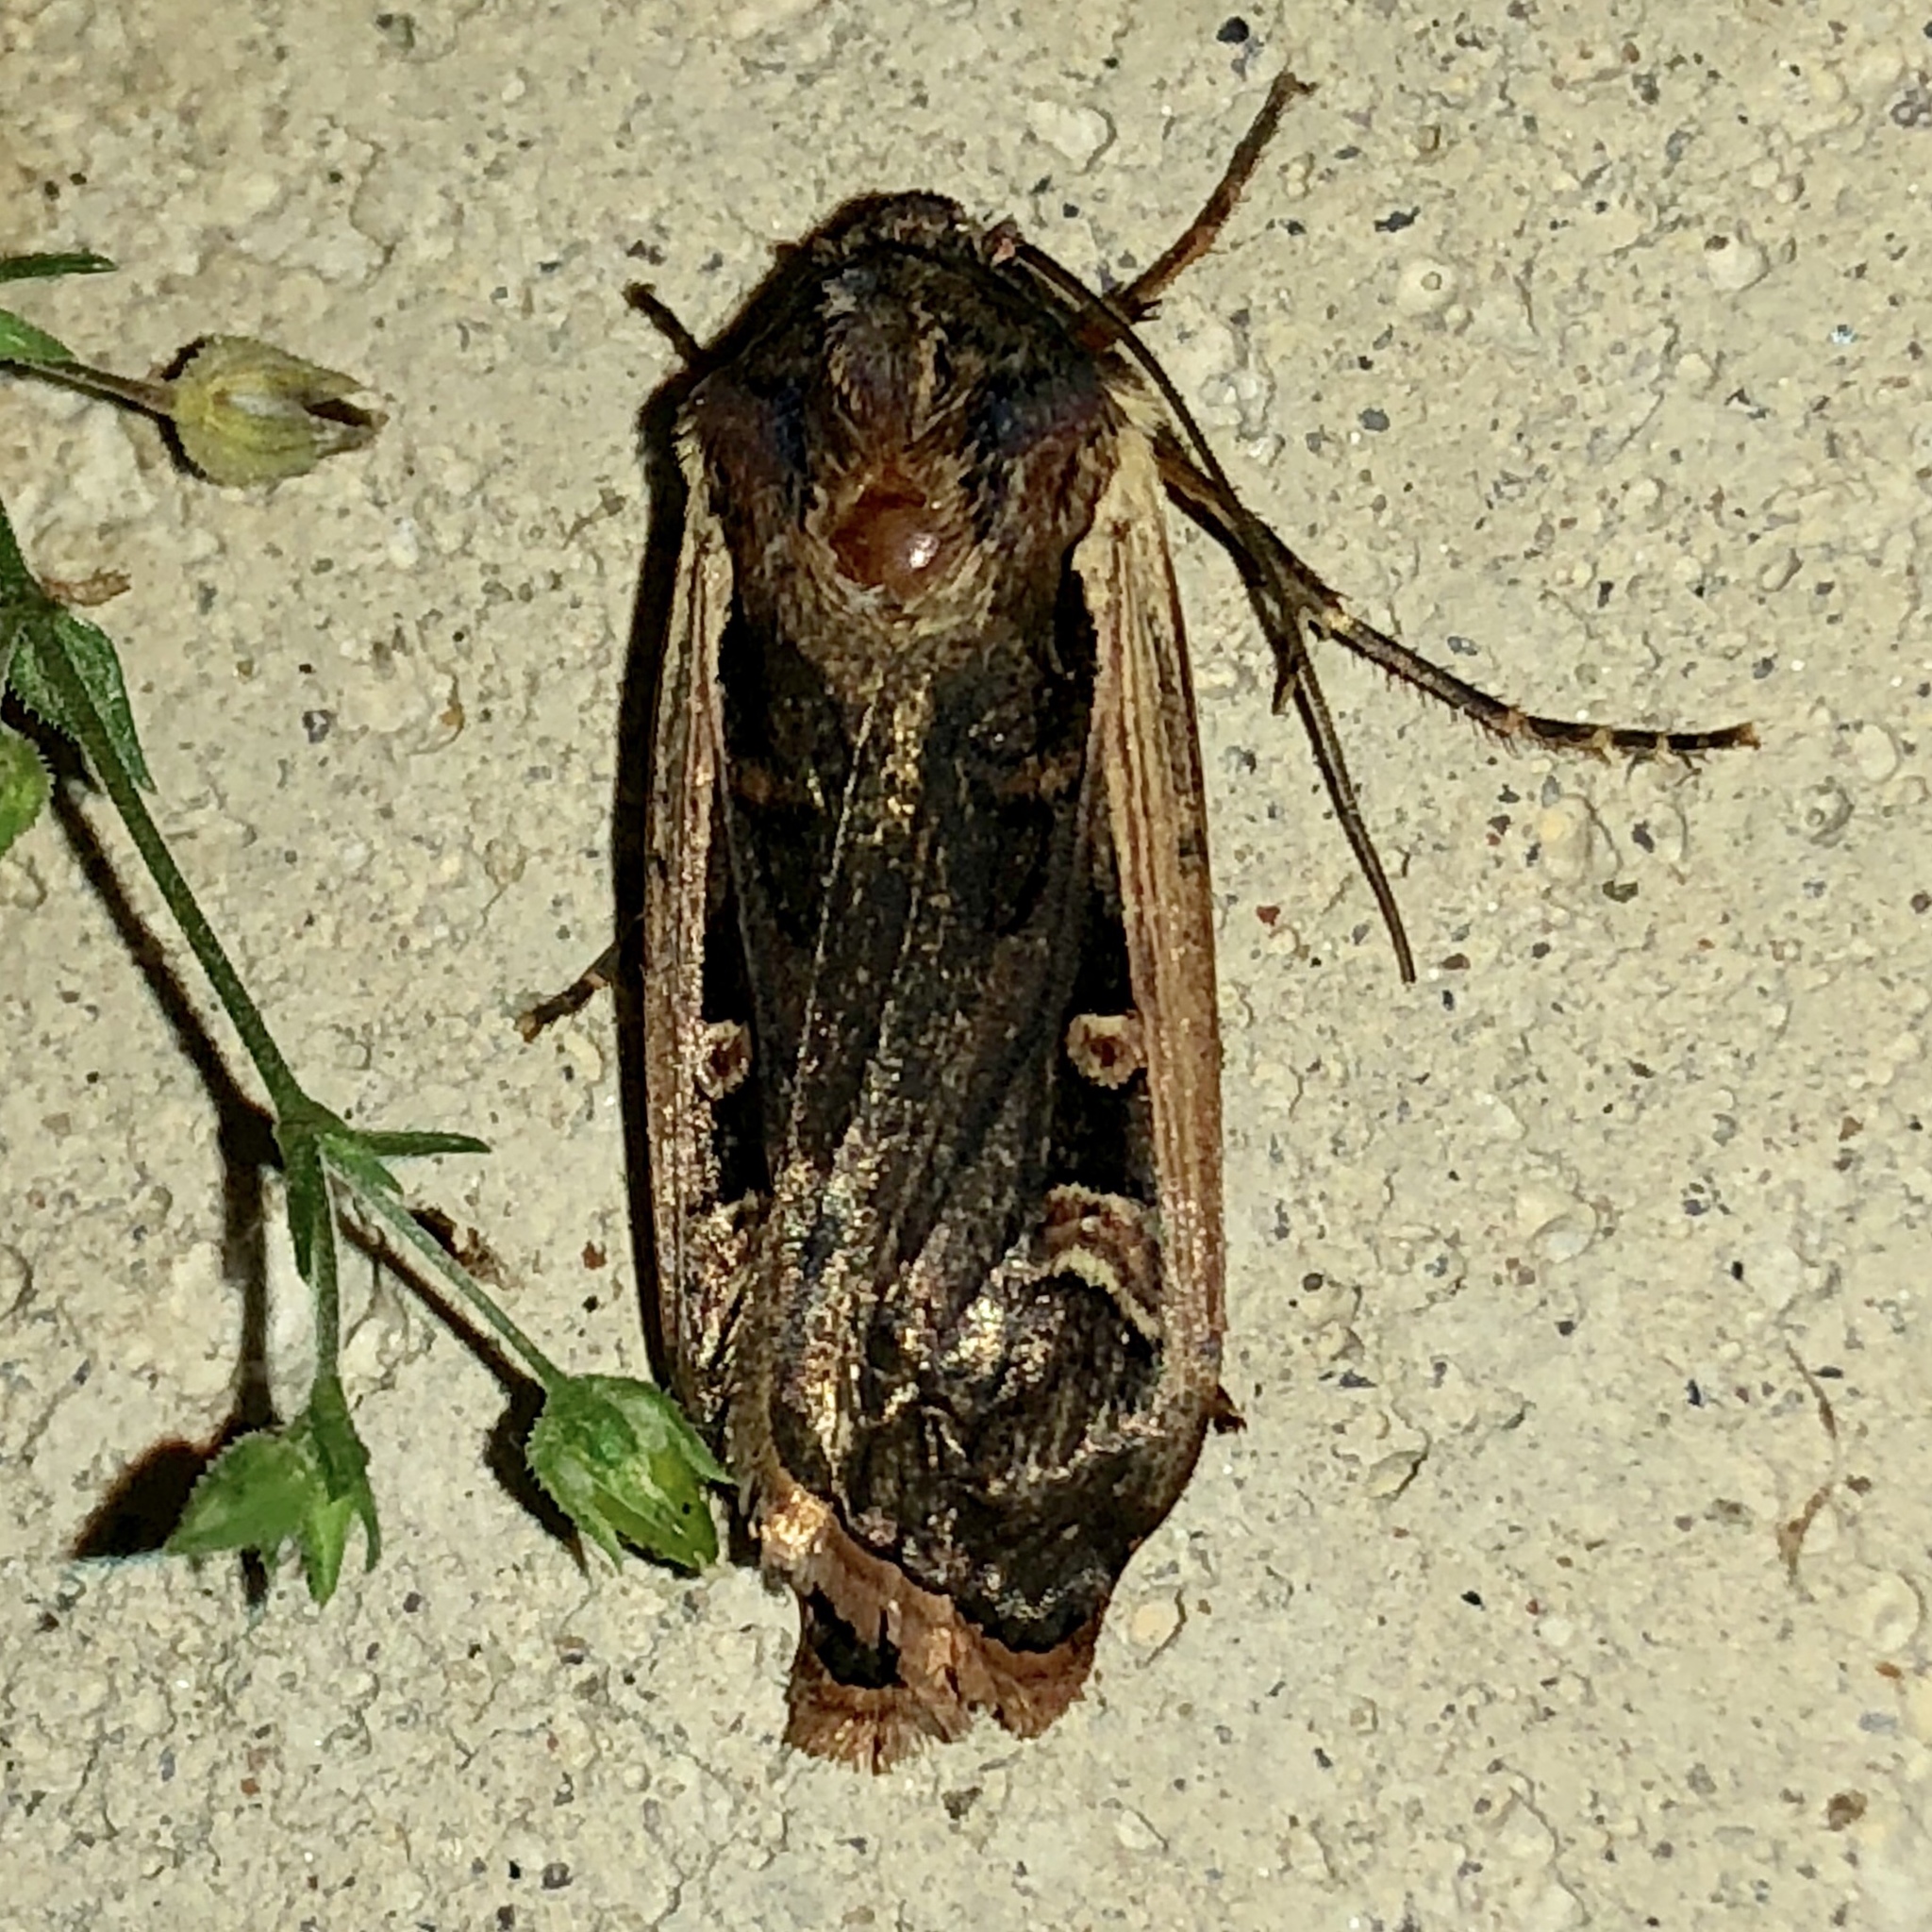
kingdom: Animalia
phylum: Arthropoda
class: Insecta
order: Lepidoptera
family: Noctuidae
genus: Striacosta
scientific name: Striacosta albicosta
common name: Western bean cutworm moth
